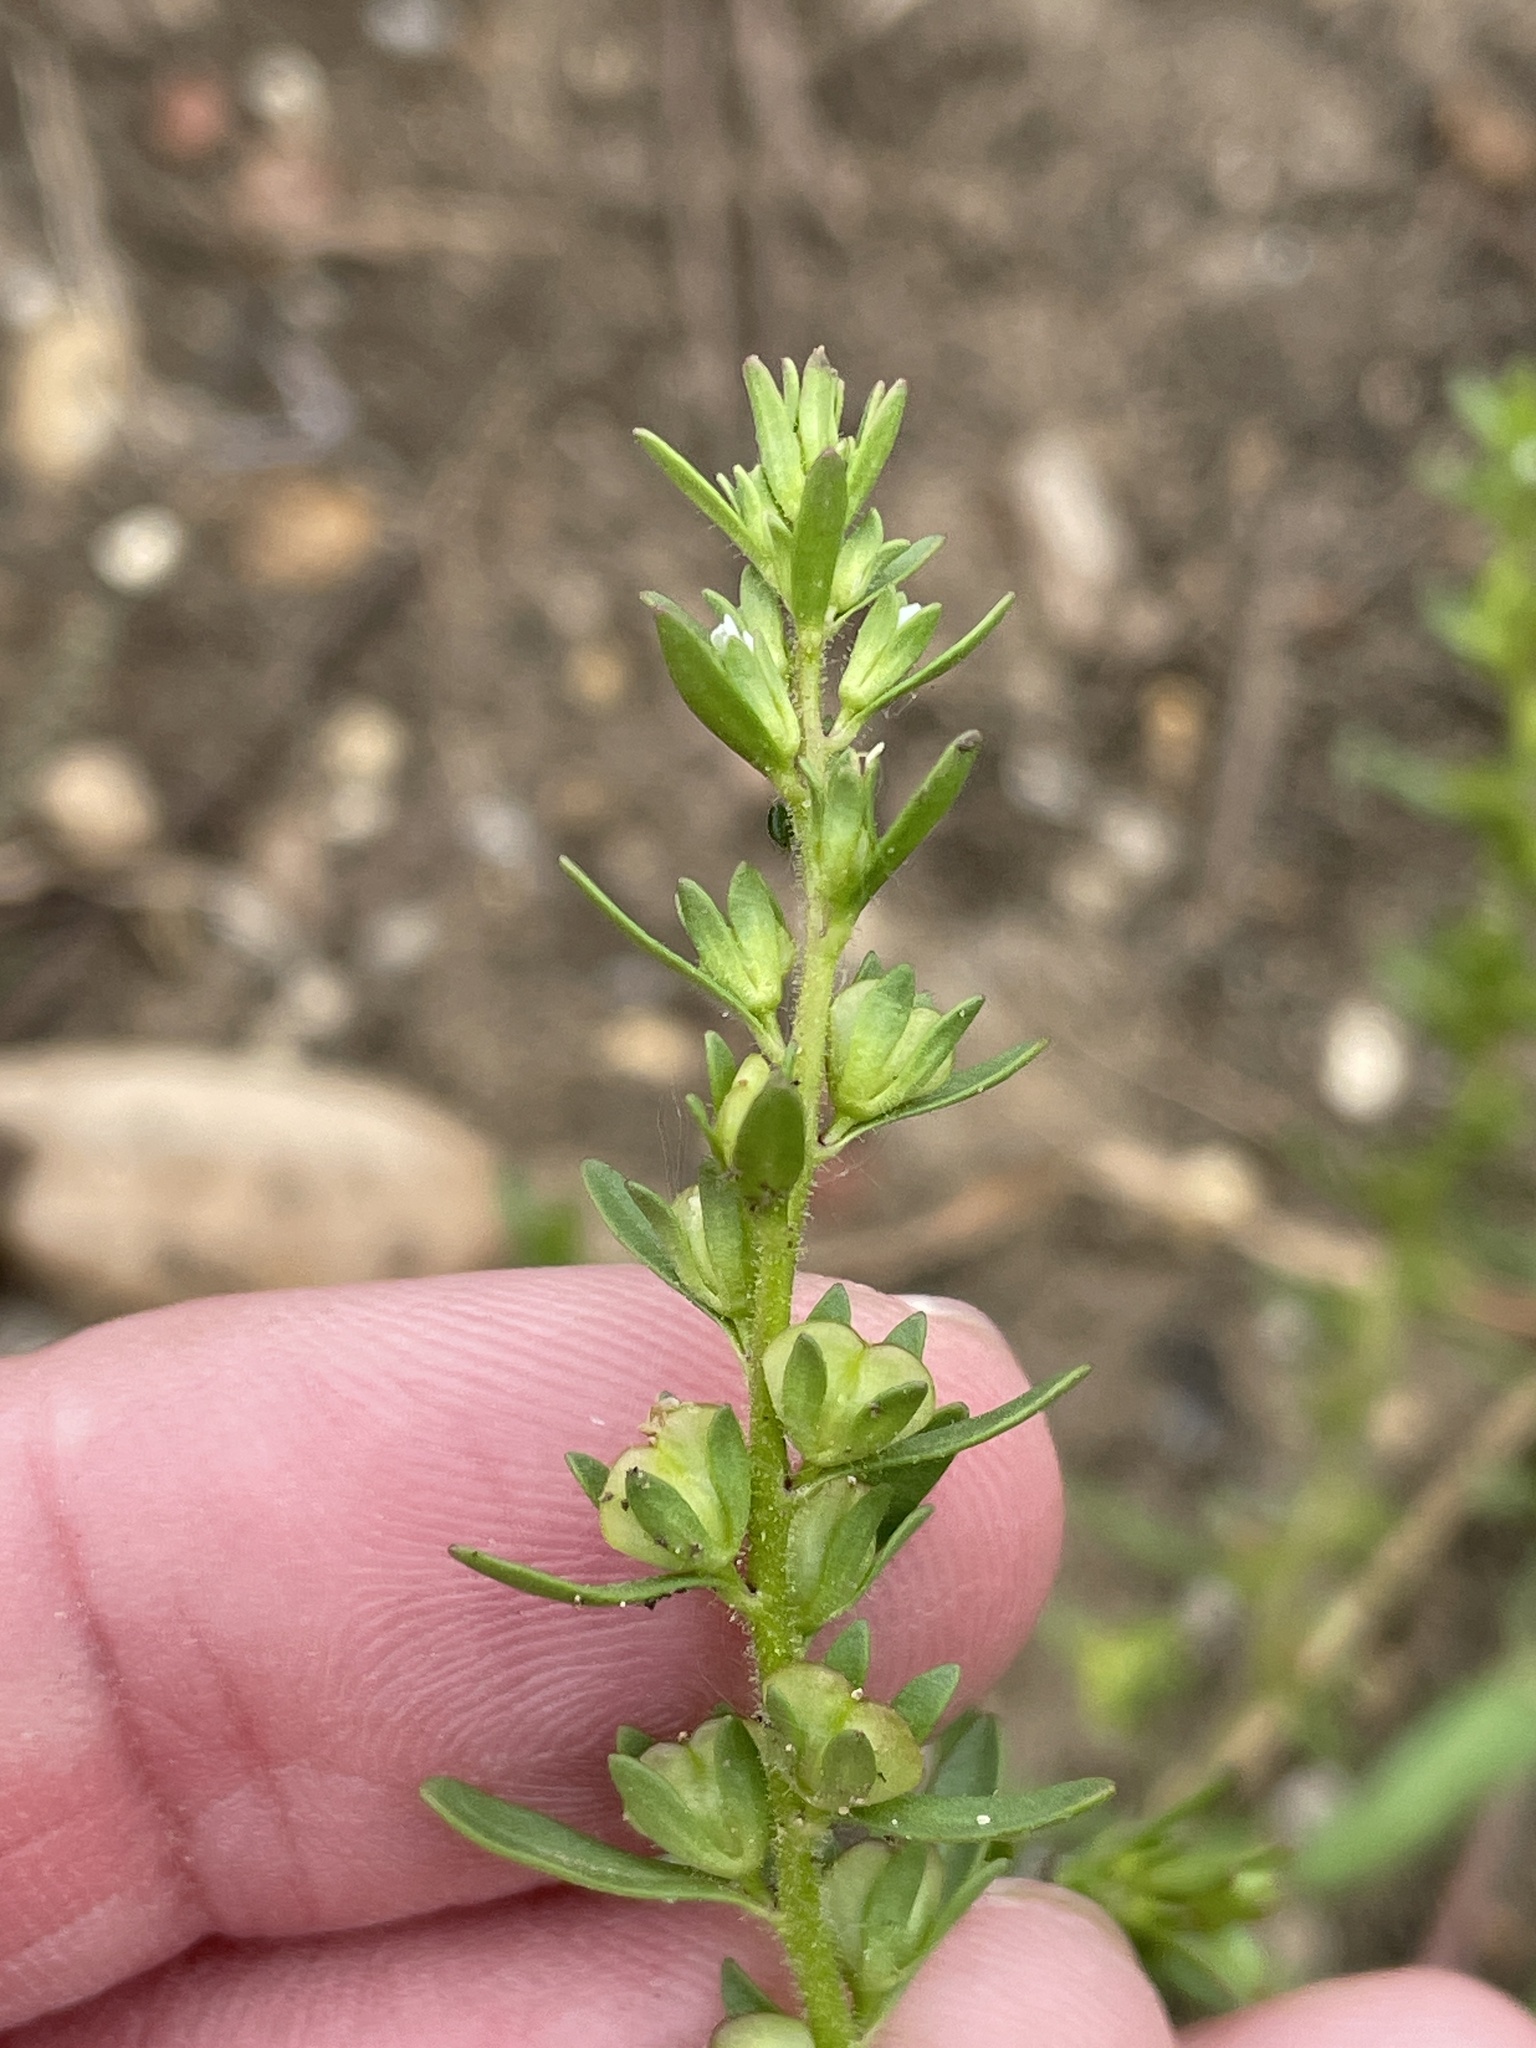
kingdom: Plantae
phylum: Tracheophyta
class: Magnoliopsida
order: Lamiales
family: Plantaginaceae
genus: Veronica
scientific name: Veronica peregrina
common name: Neckweed
